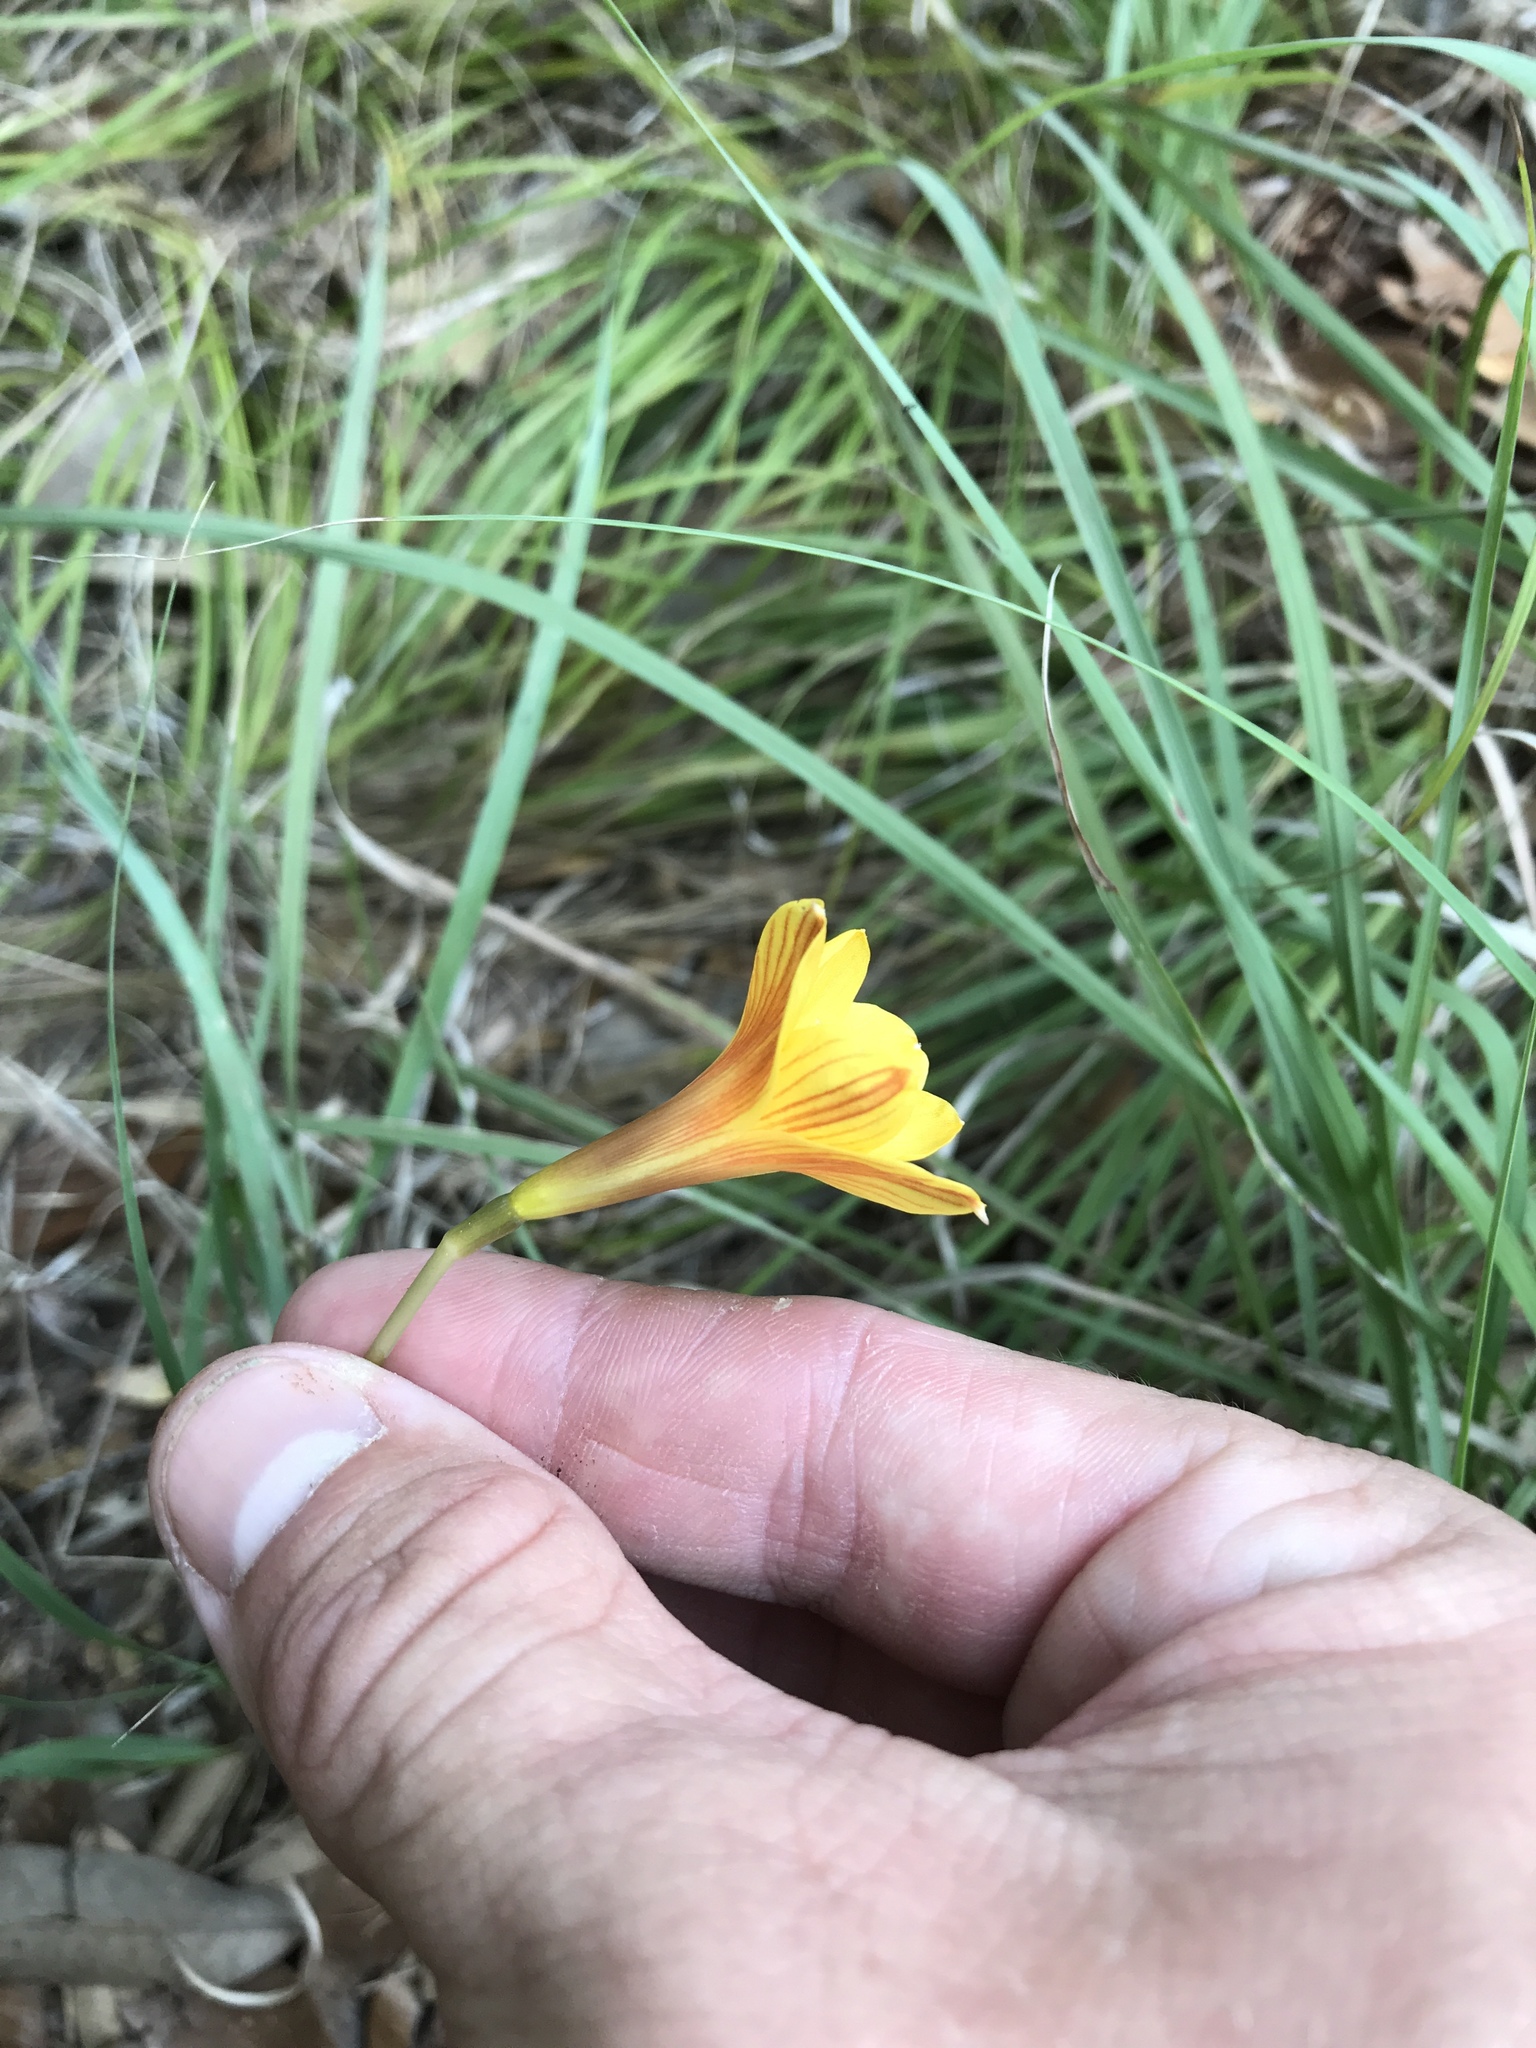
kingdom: Plantae
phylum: Tracheophyta
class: Liliopsida
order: Asparagales
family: Amaryllidaceae
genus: Zephyranthes
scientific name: Zephyranthes tubispatha
